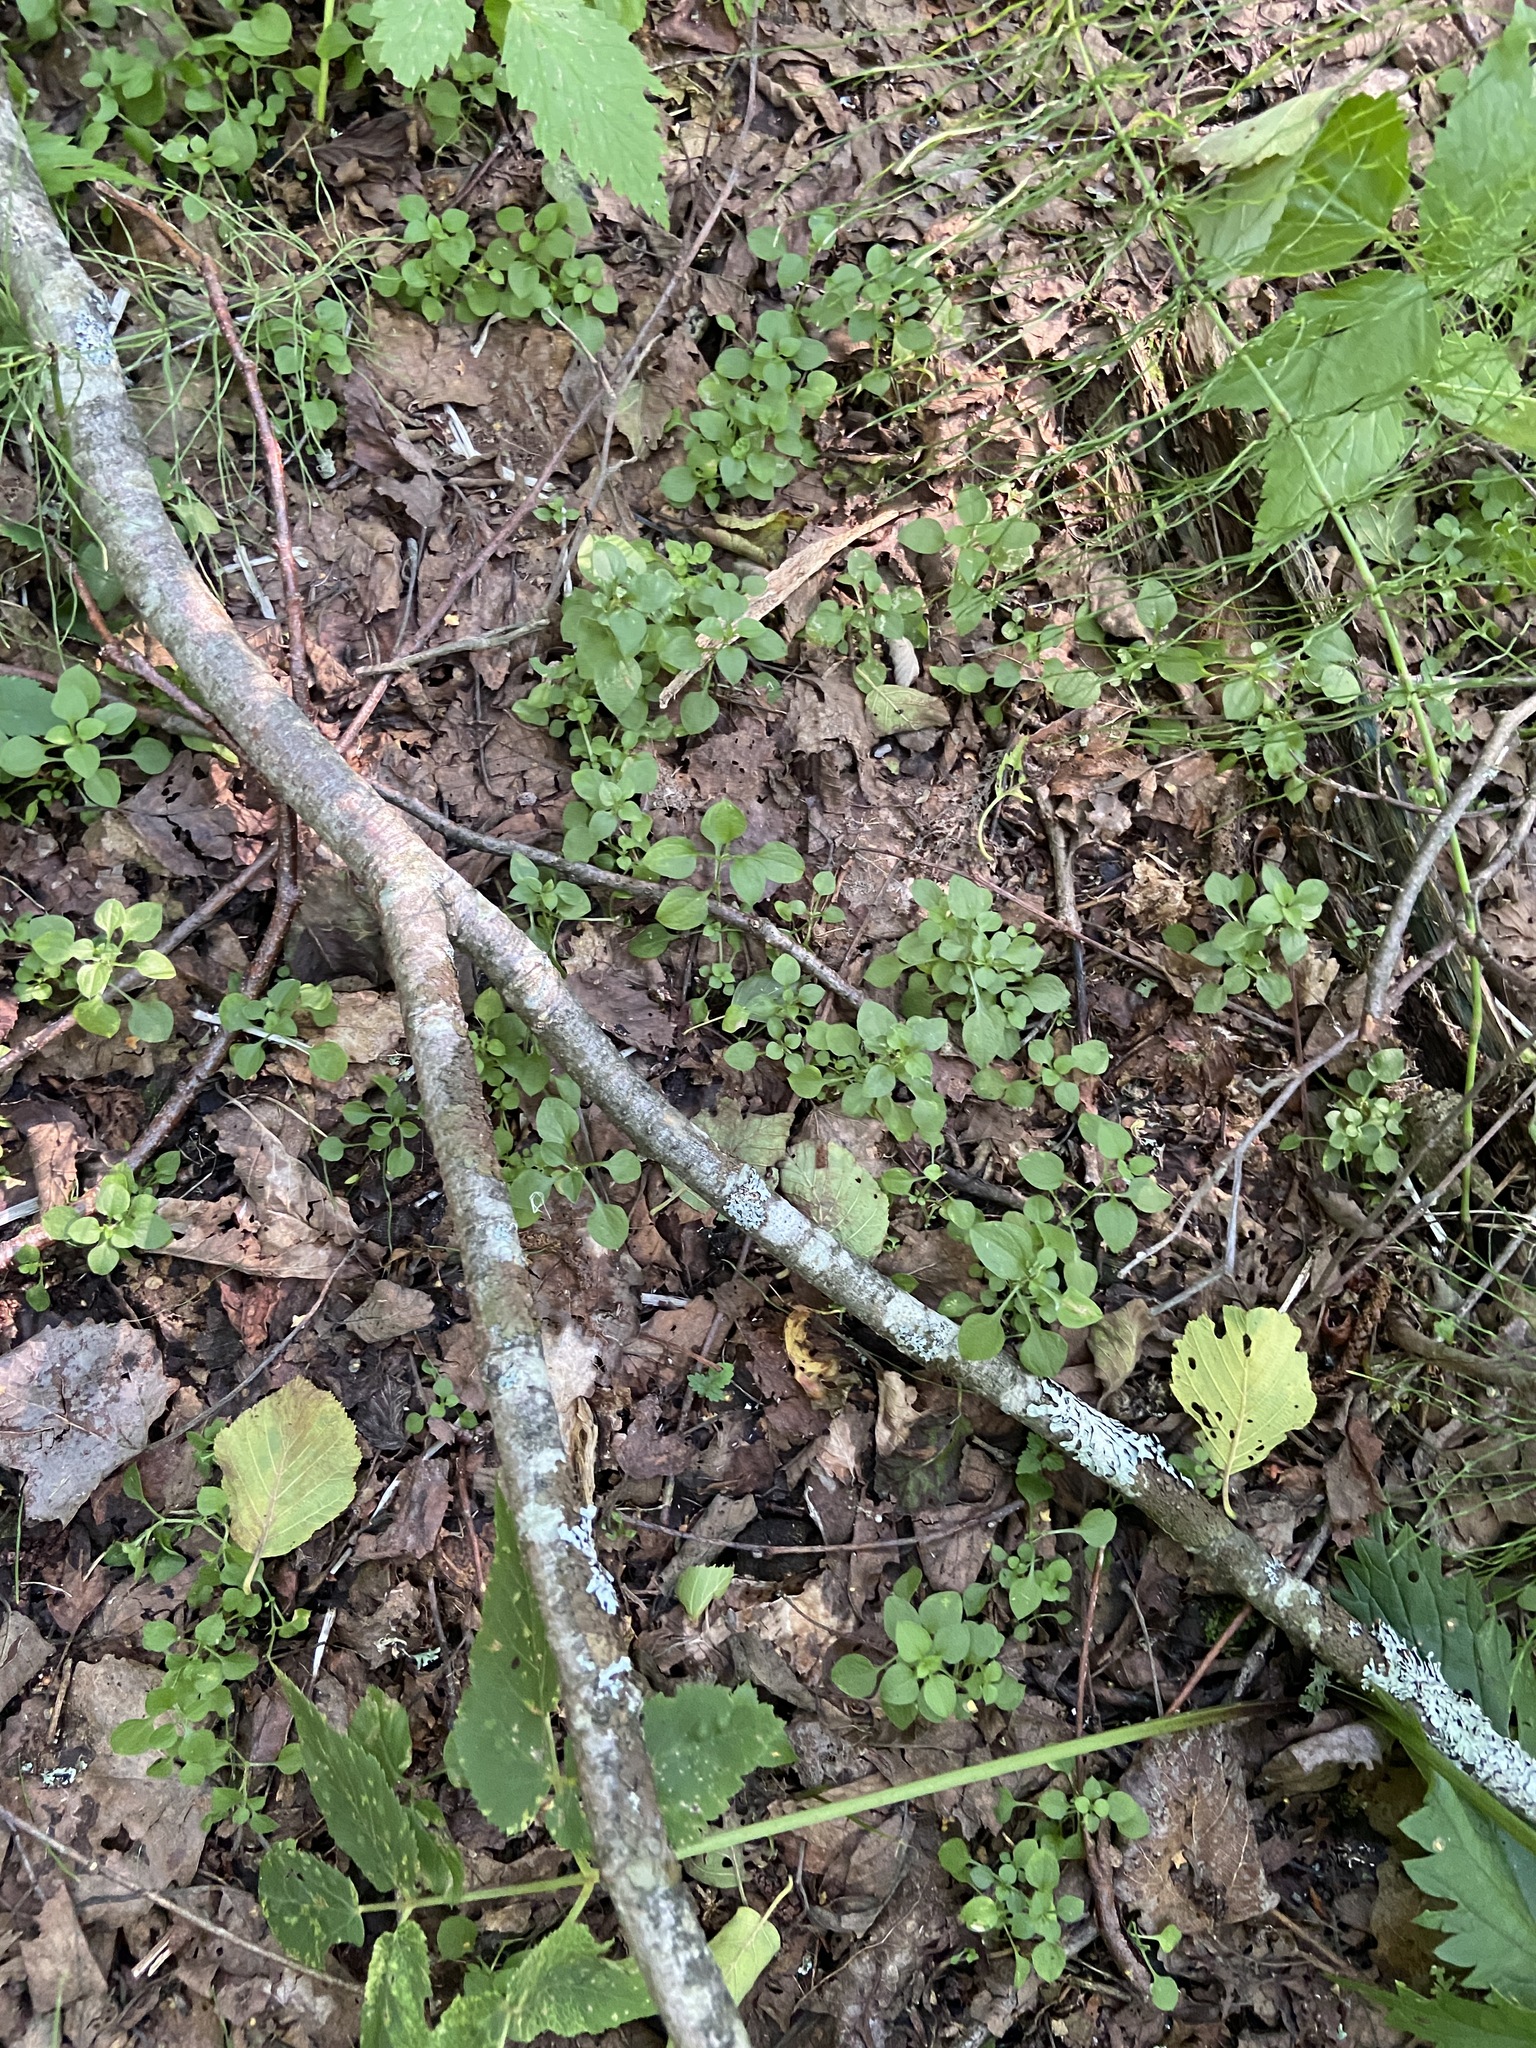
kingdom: Plantae
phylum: Tracheophyta
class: Magnoliopsida
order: Caryophyllales
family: Caryophyllaceae
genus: Moehringia
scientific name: Moehringia trinervia
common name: Three-nerved sandwort
